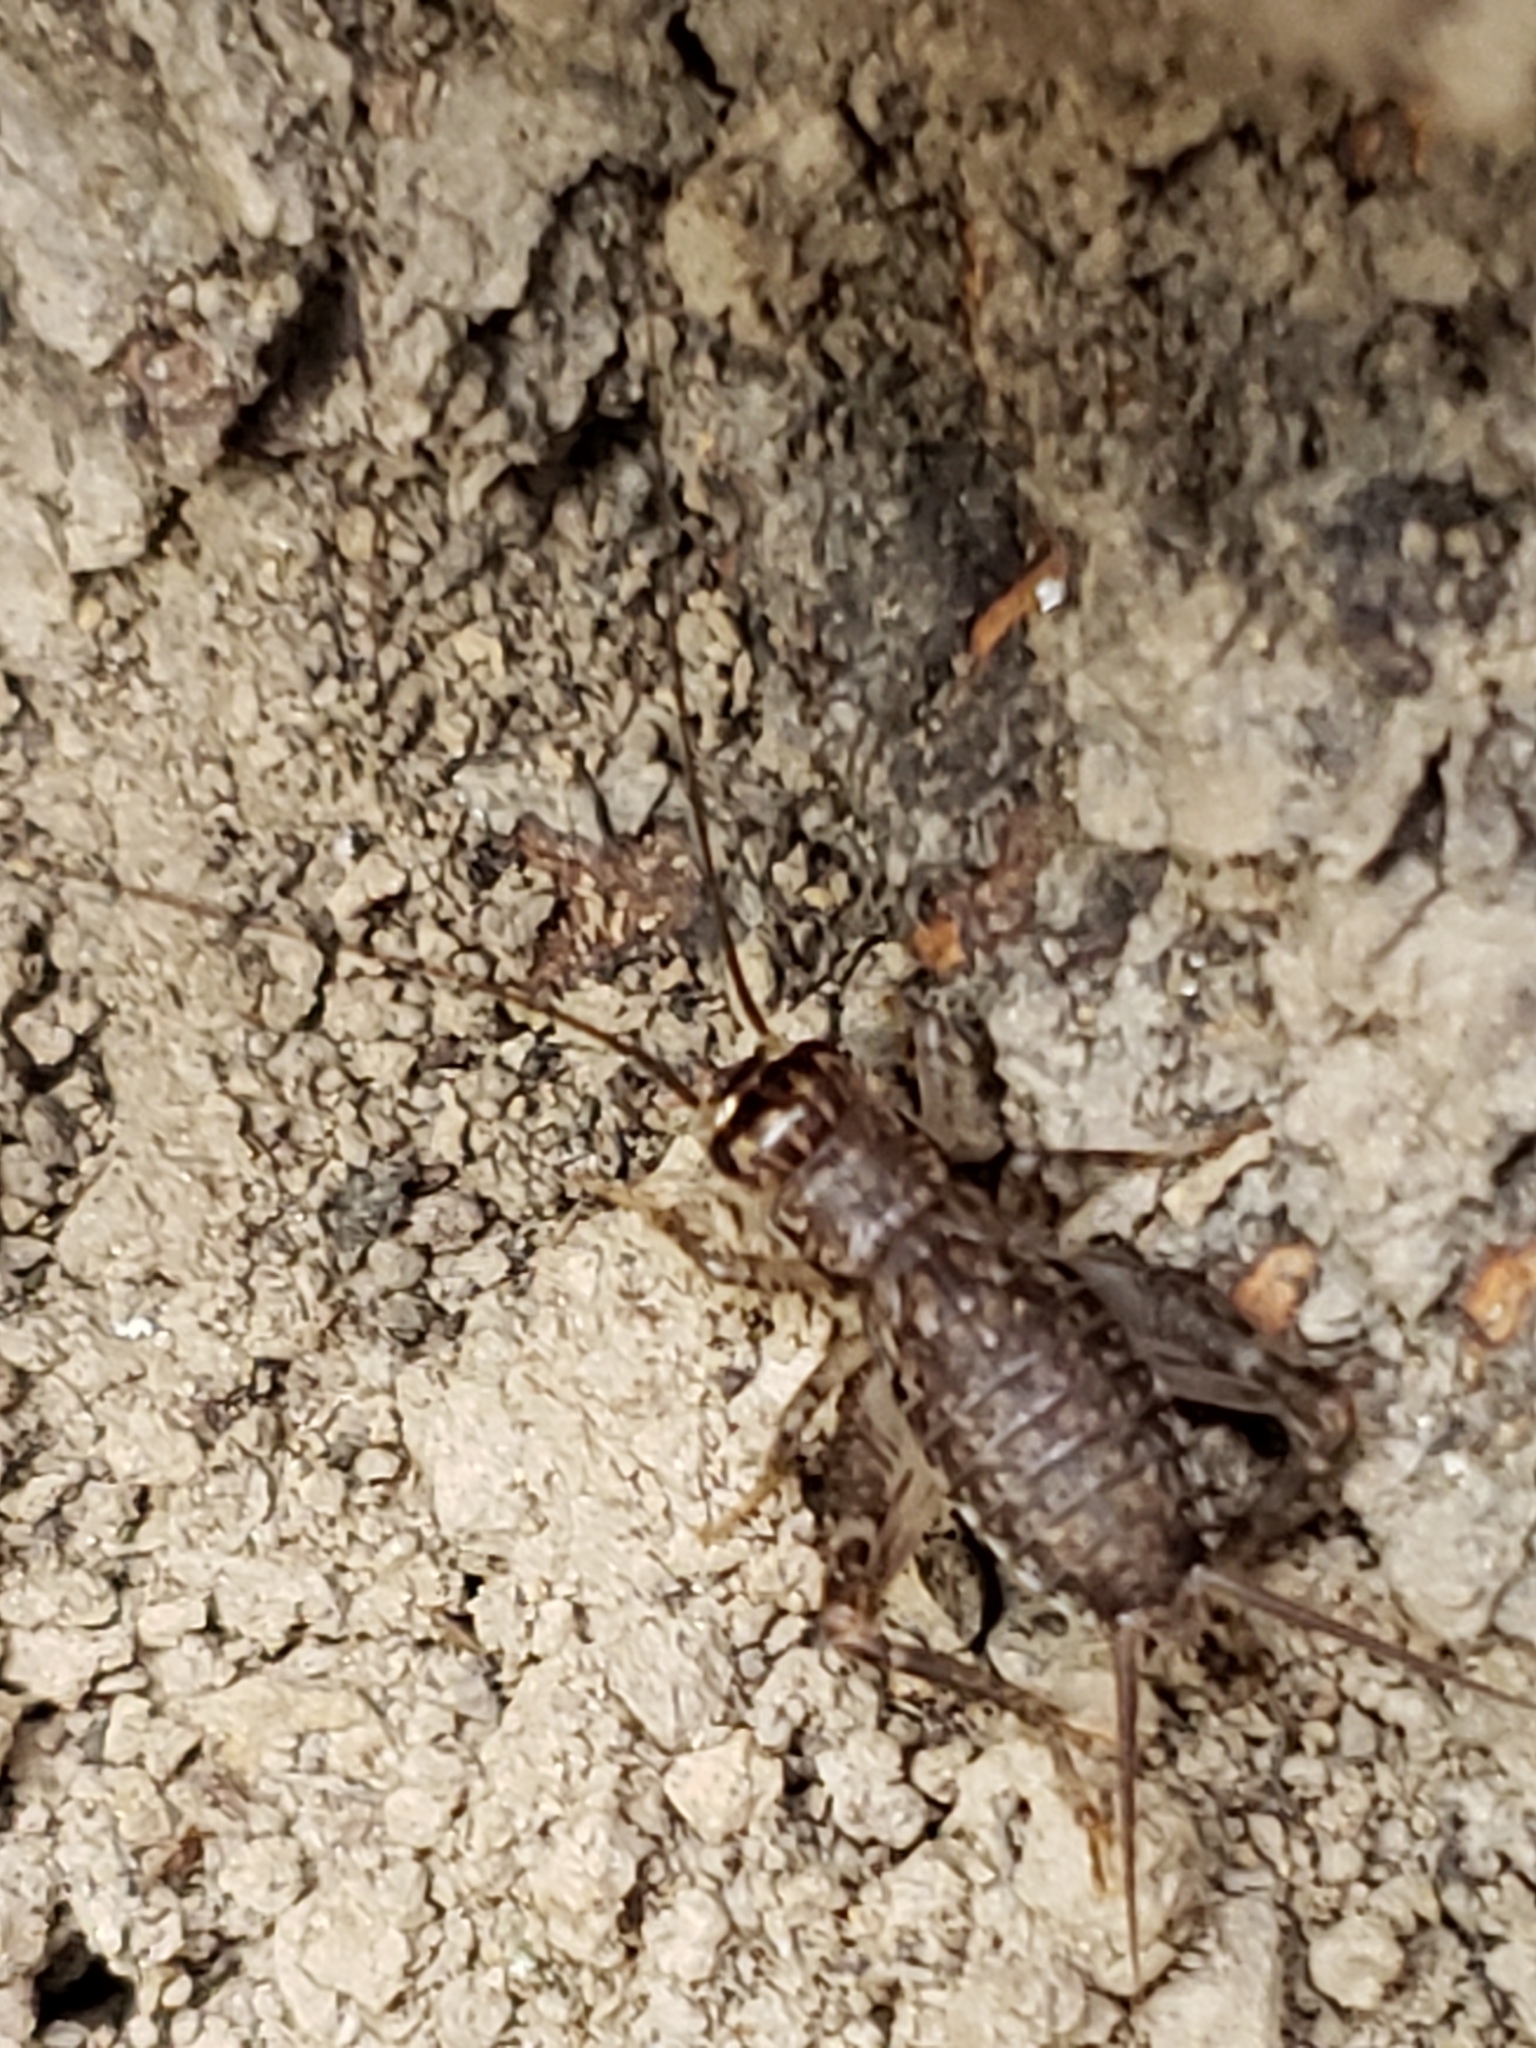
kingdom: Animalia
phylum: Arthropoda
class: Insecta
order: Orthoptera
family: Gryllidae
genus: Velarifictorus
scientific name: Velarifictorus micado
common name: Japanese burrowing cricket
